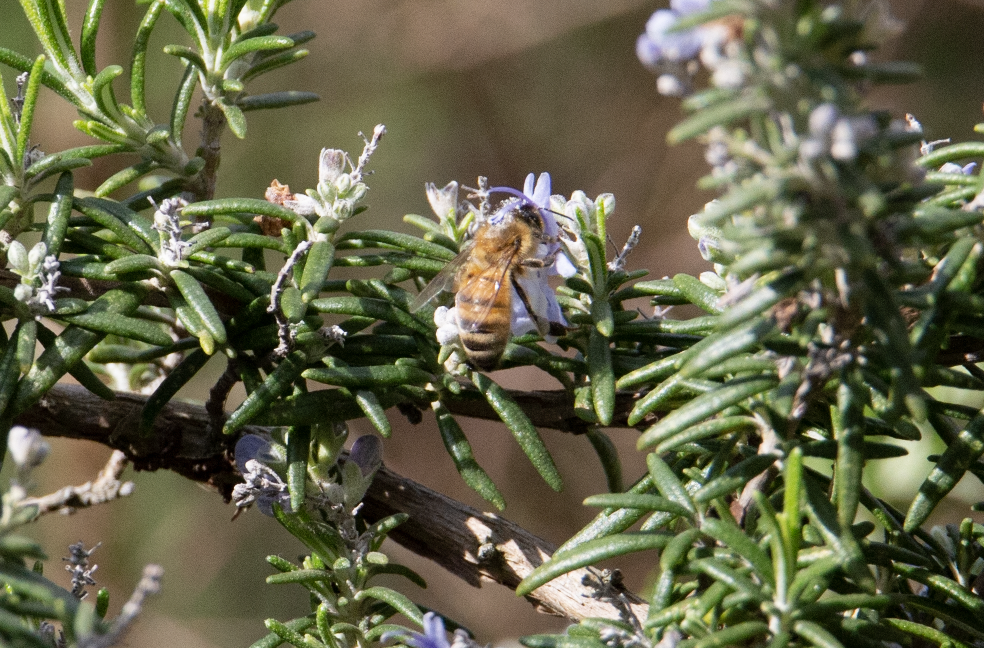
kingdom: Animalia
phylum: Arthropoda
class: Insecta
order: Hymenoptera
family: Apidae
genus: Apis
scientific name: Apis mellifera
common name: Honey bee
